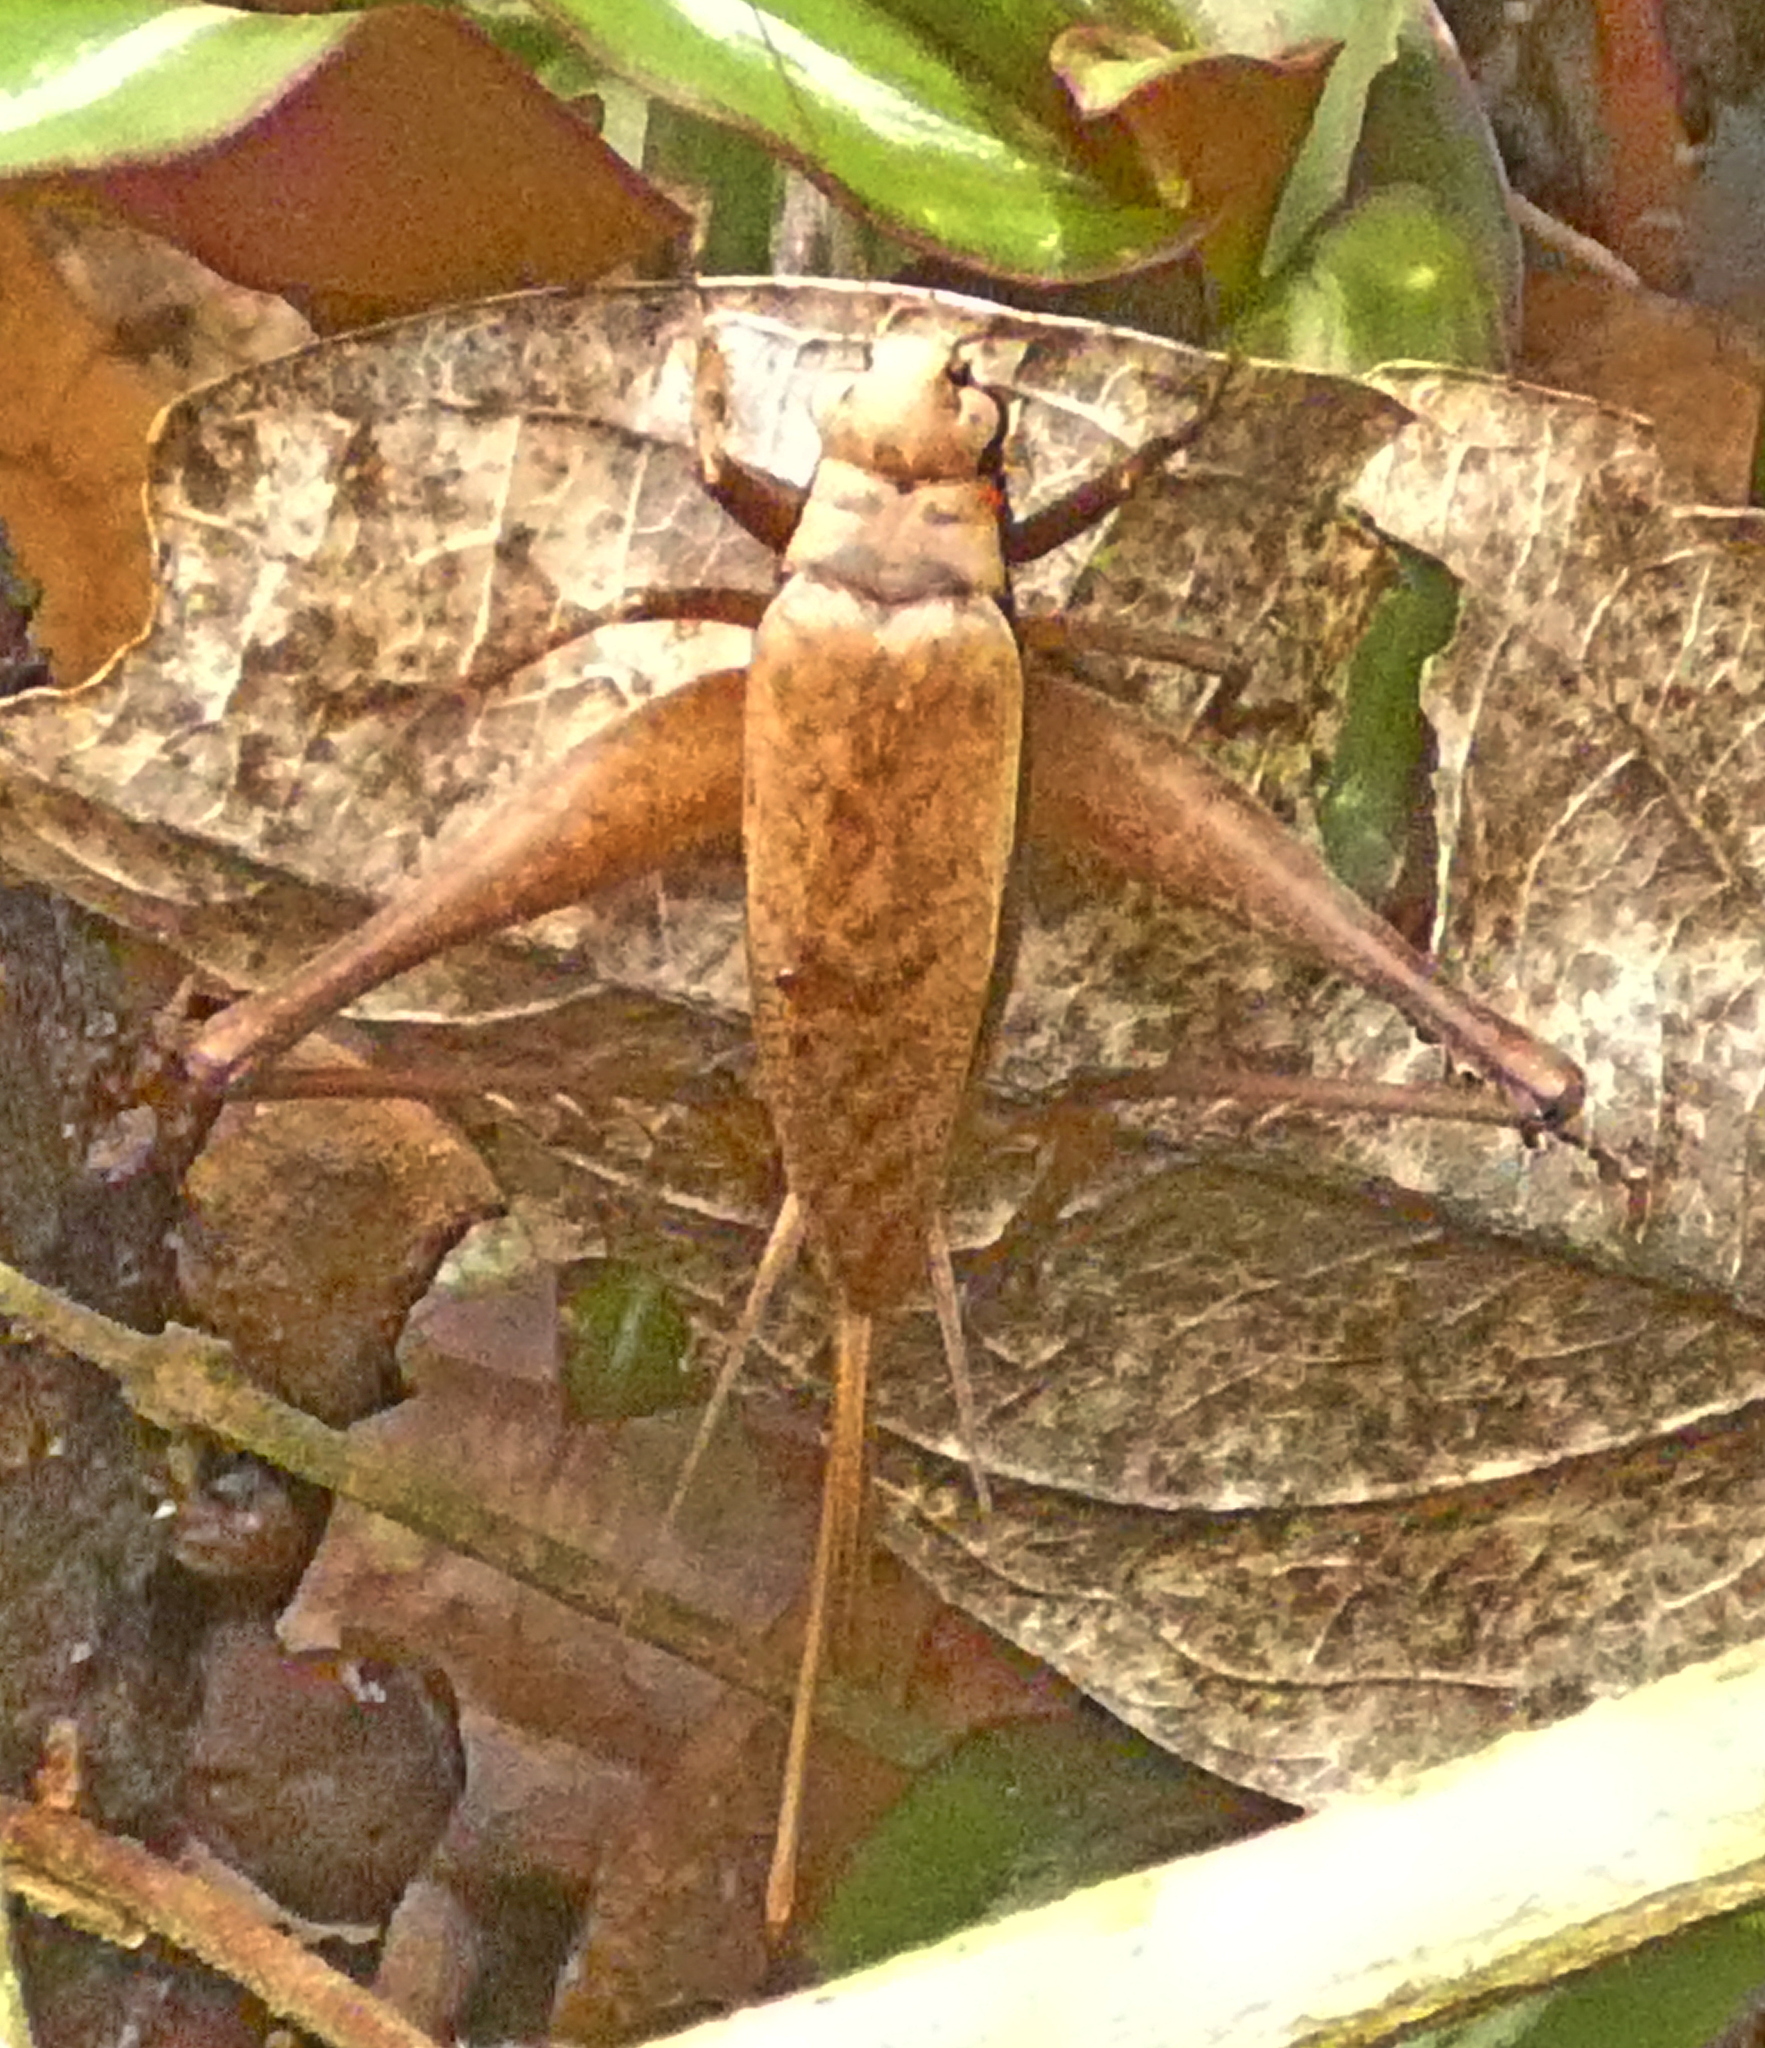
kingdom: Animalia
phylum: Arthropoda
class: Insecta
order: Orthoptera
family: Gryllidae
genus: Eneoptera
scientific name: Eneoptera surinamensis
